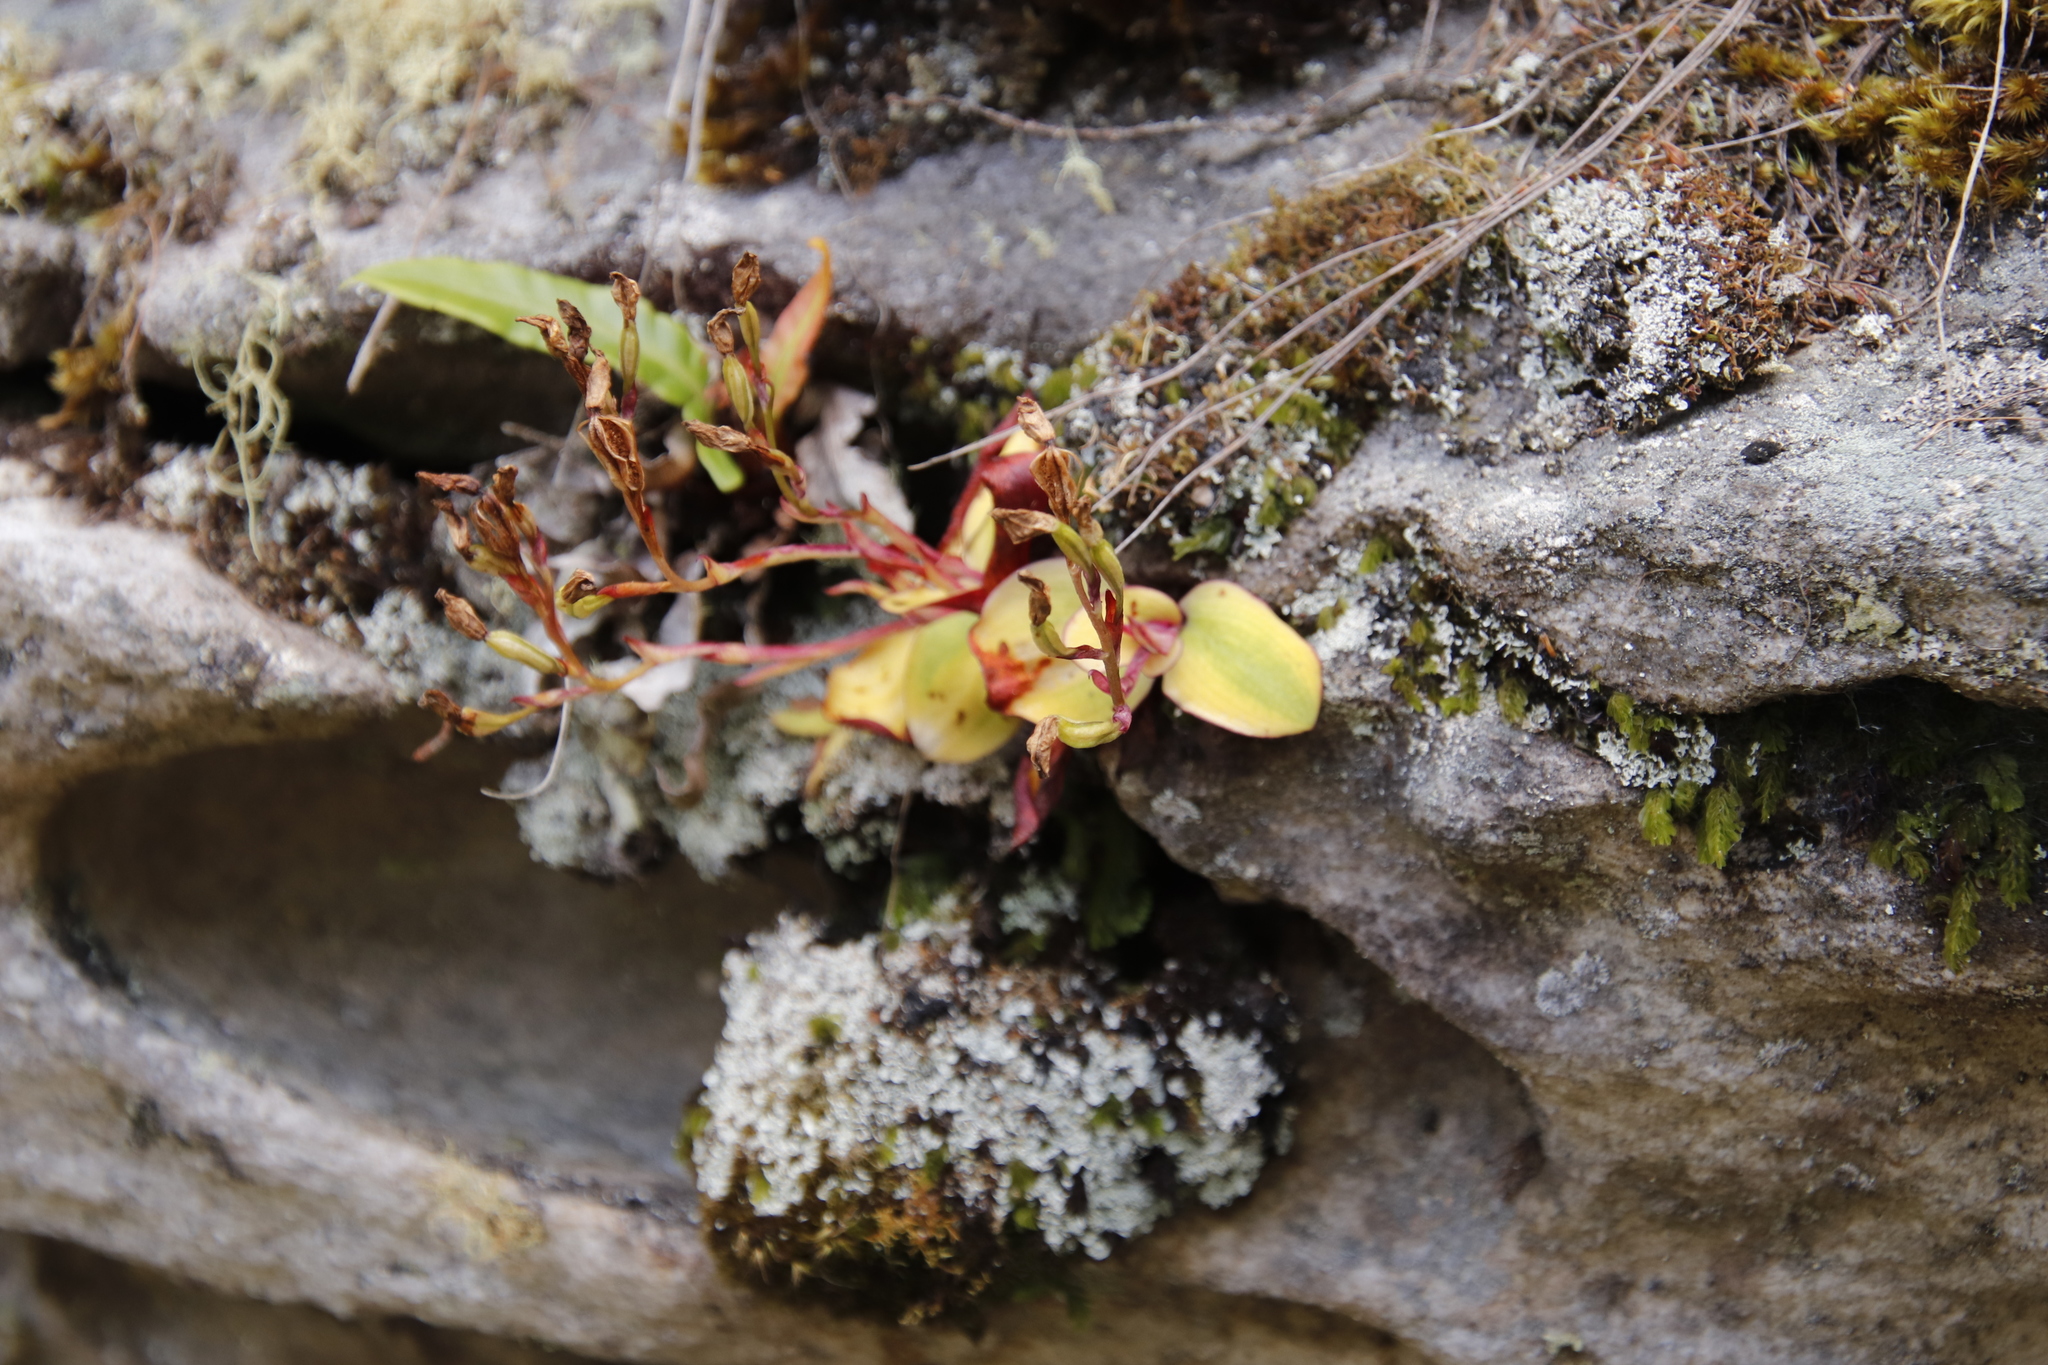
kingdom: Plantae
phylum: Tracheophyta
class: Liliopsida
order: Asparagales
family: Orchidaceae
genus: Disa
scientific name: Disa rosea
